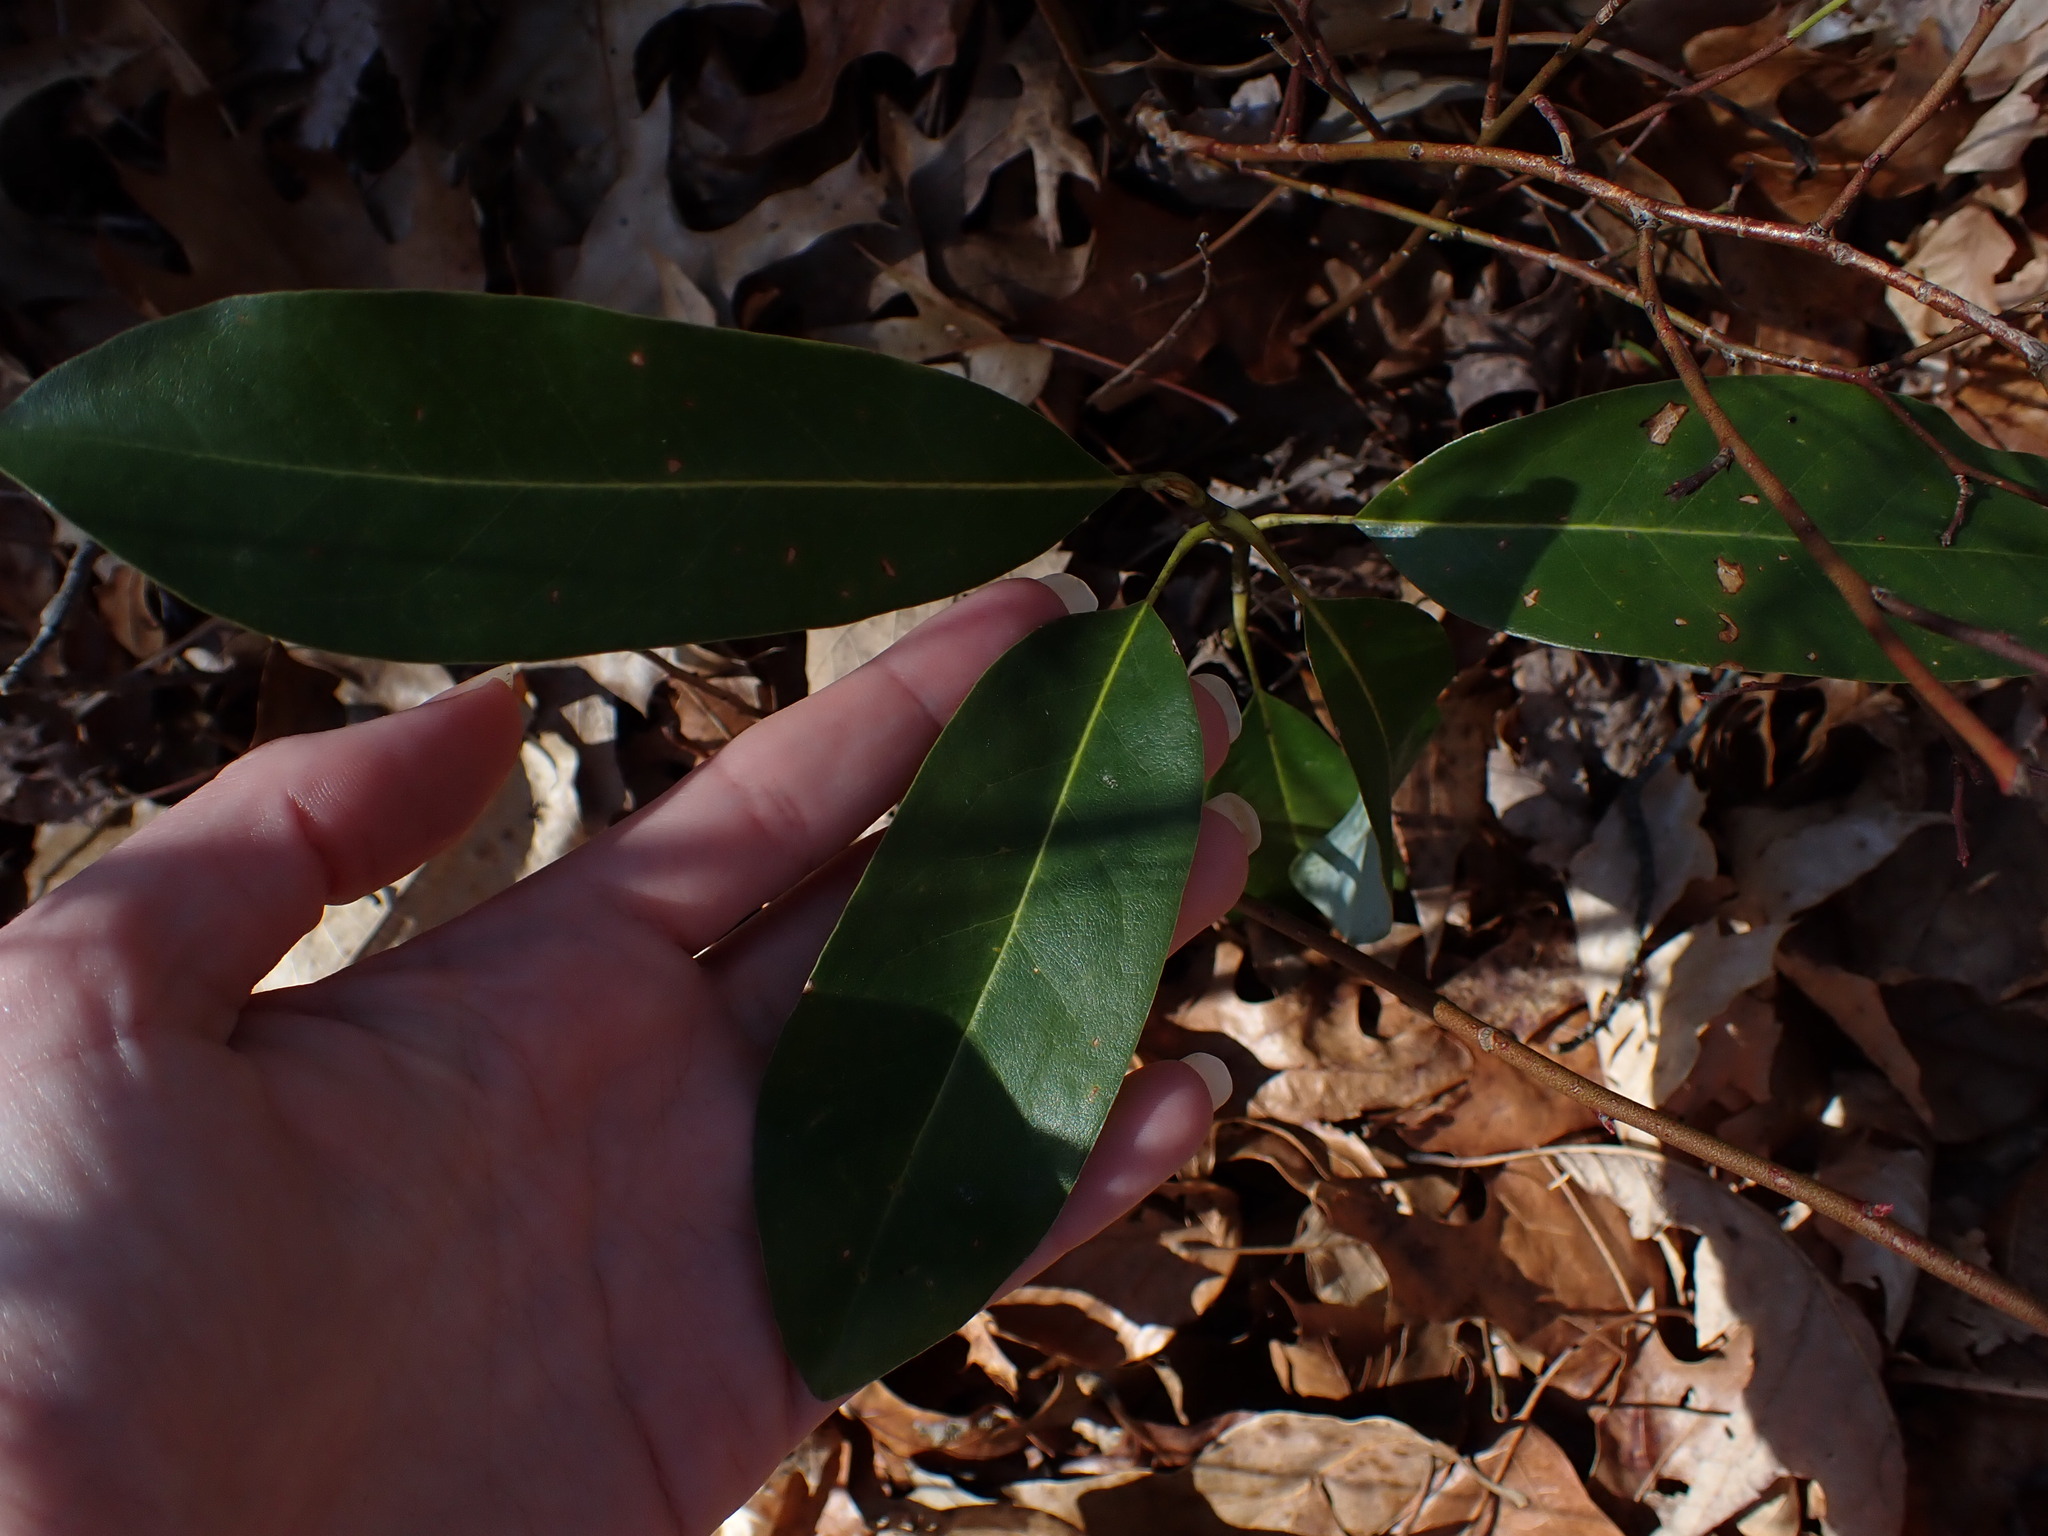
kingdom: Plantae
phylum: Tracheophyta
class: Magnoliopsida
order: Magnoliales
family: Magnoliaceae
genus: Magnolia
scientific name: Magnolia virginiana
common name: Swamp bay
